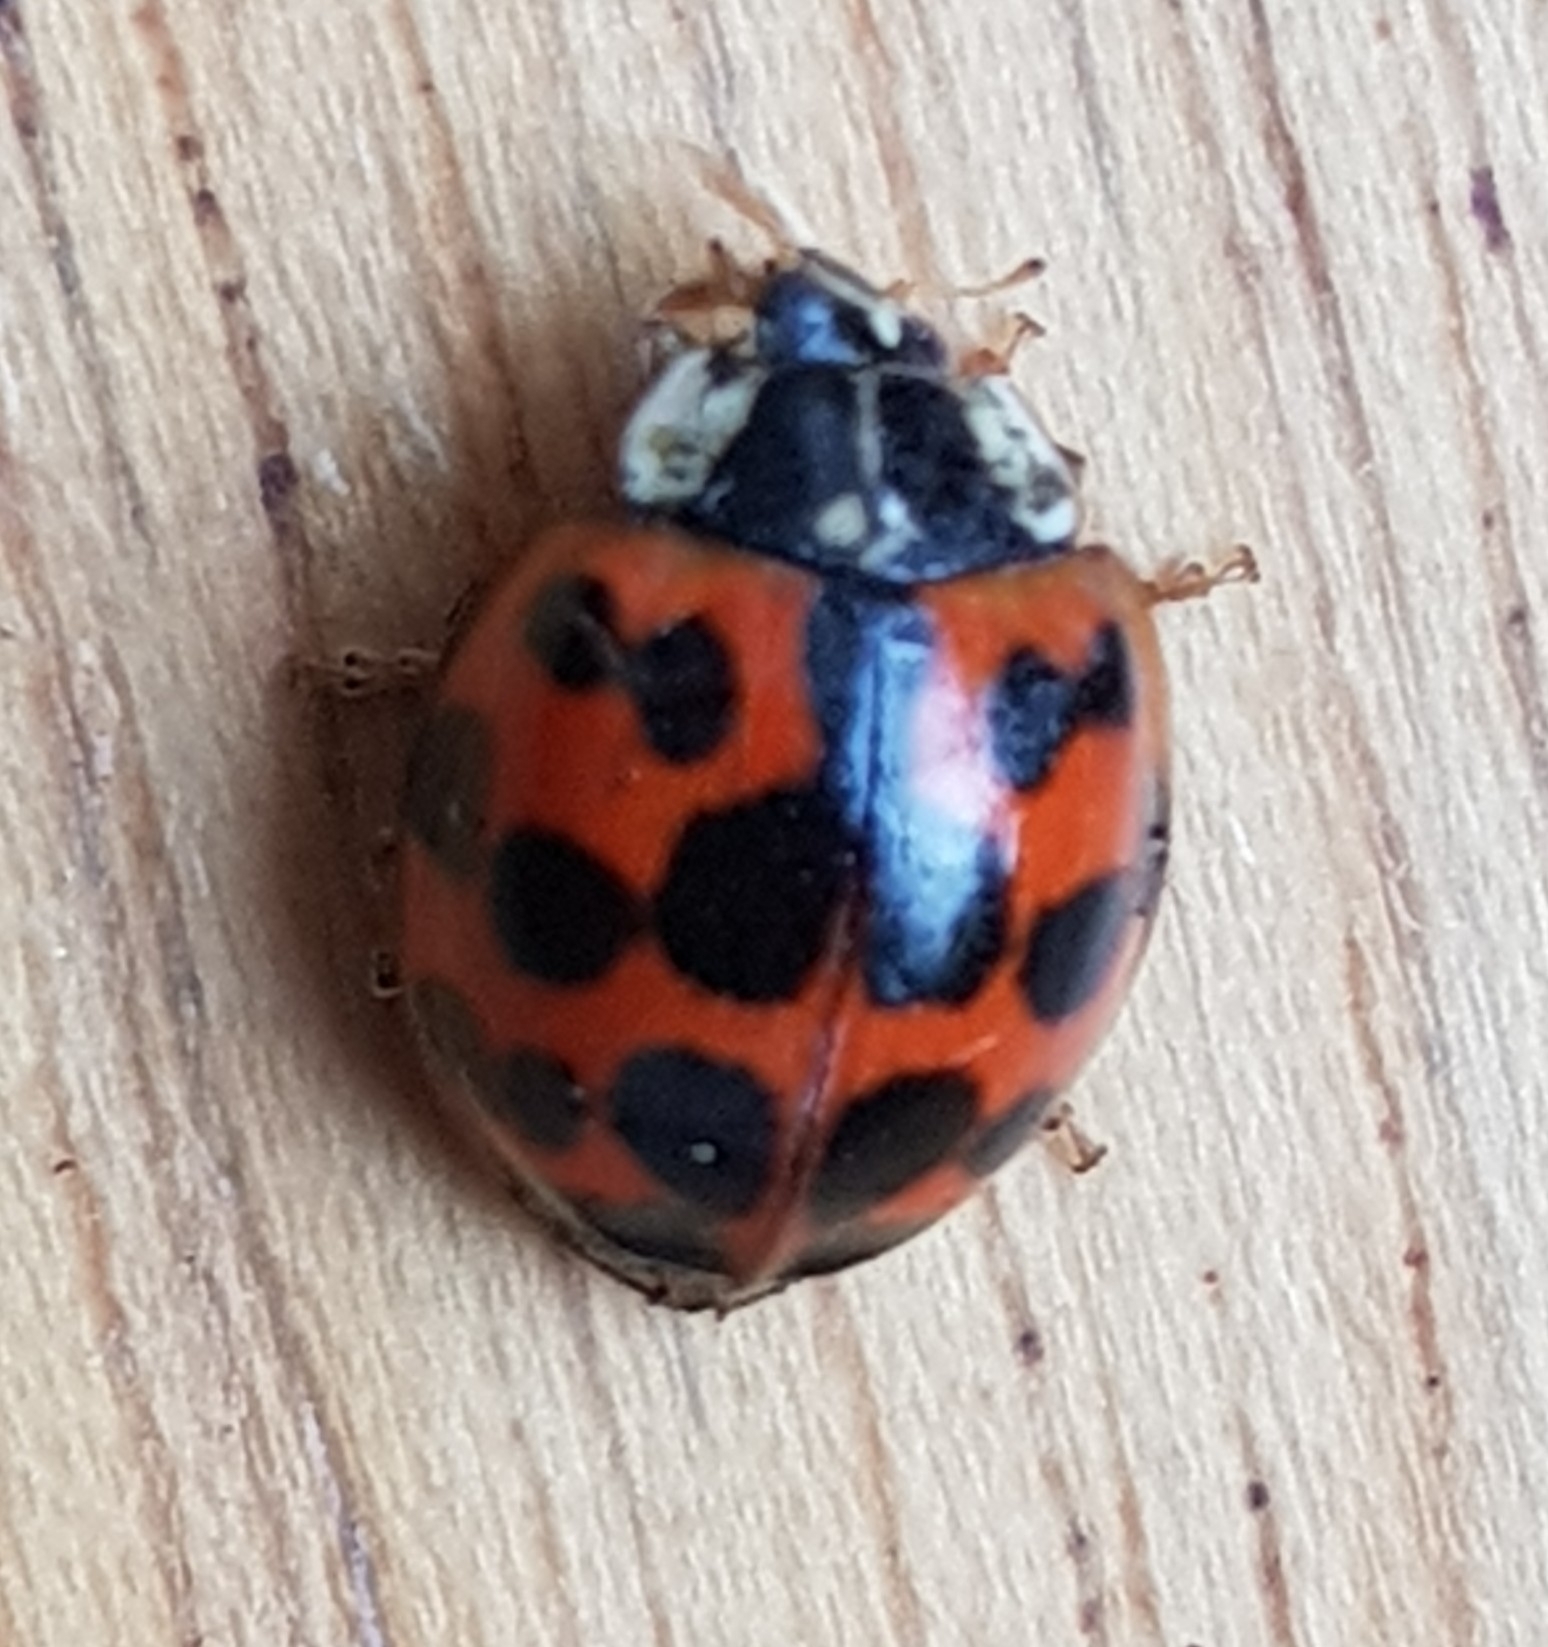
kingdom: Animalia
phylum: Arthropoda
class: Insecta
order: Coleoptera
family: Coccinellidae
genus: Harmonia
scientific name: Harmonia axyridis
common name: Harlequin ladybird
